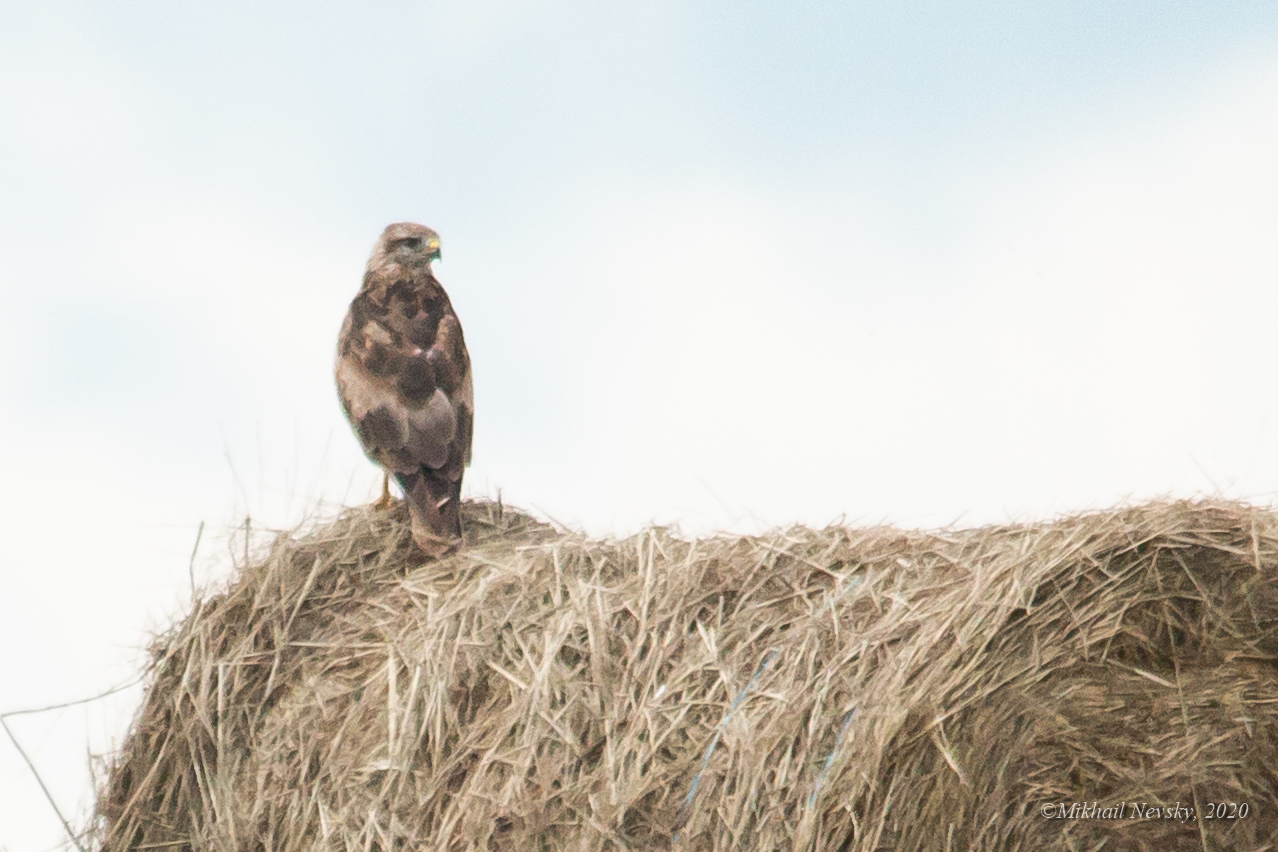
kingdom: Animalia
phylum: Chordata
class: Aves
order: Accipitriformes
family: Accipitridae
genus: Buteo
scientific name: Buteo buteo
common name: Common buzzard
